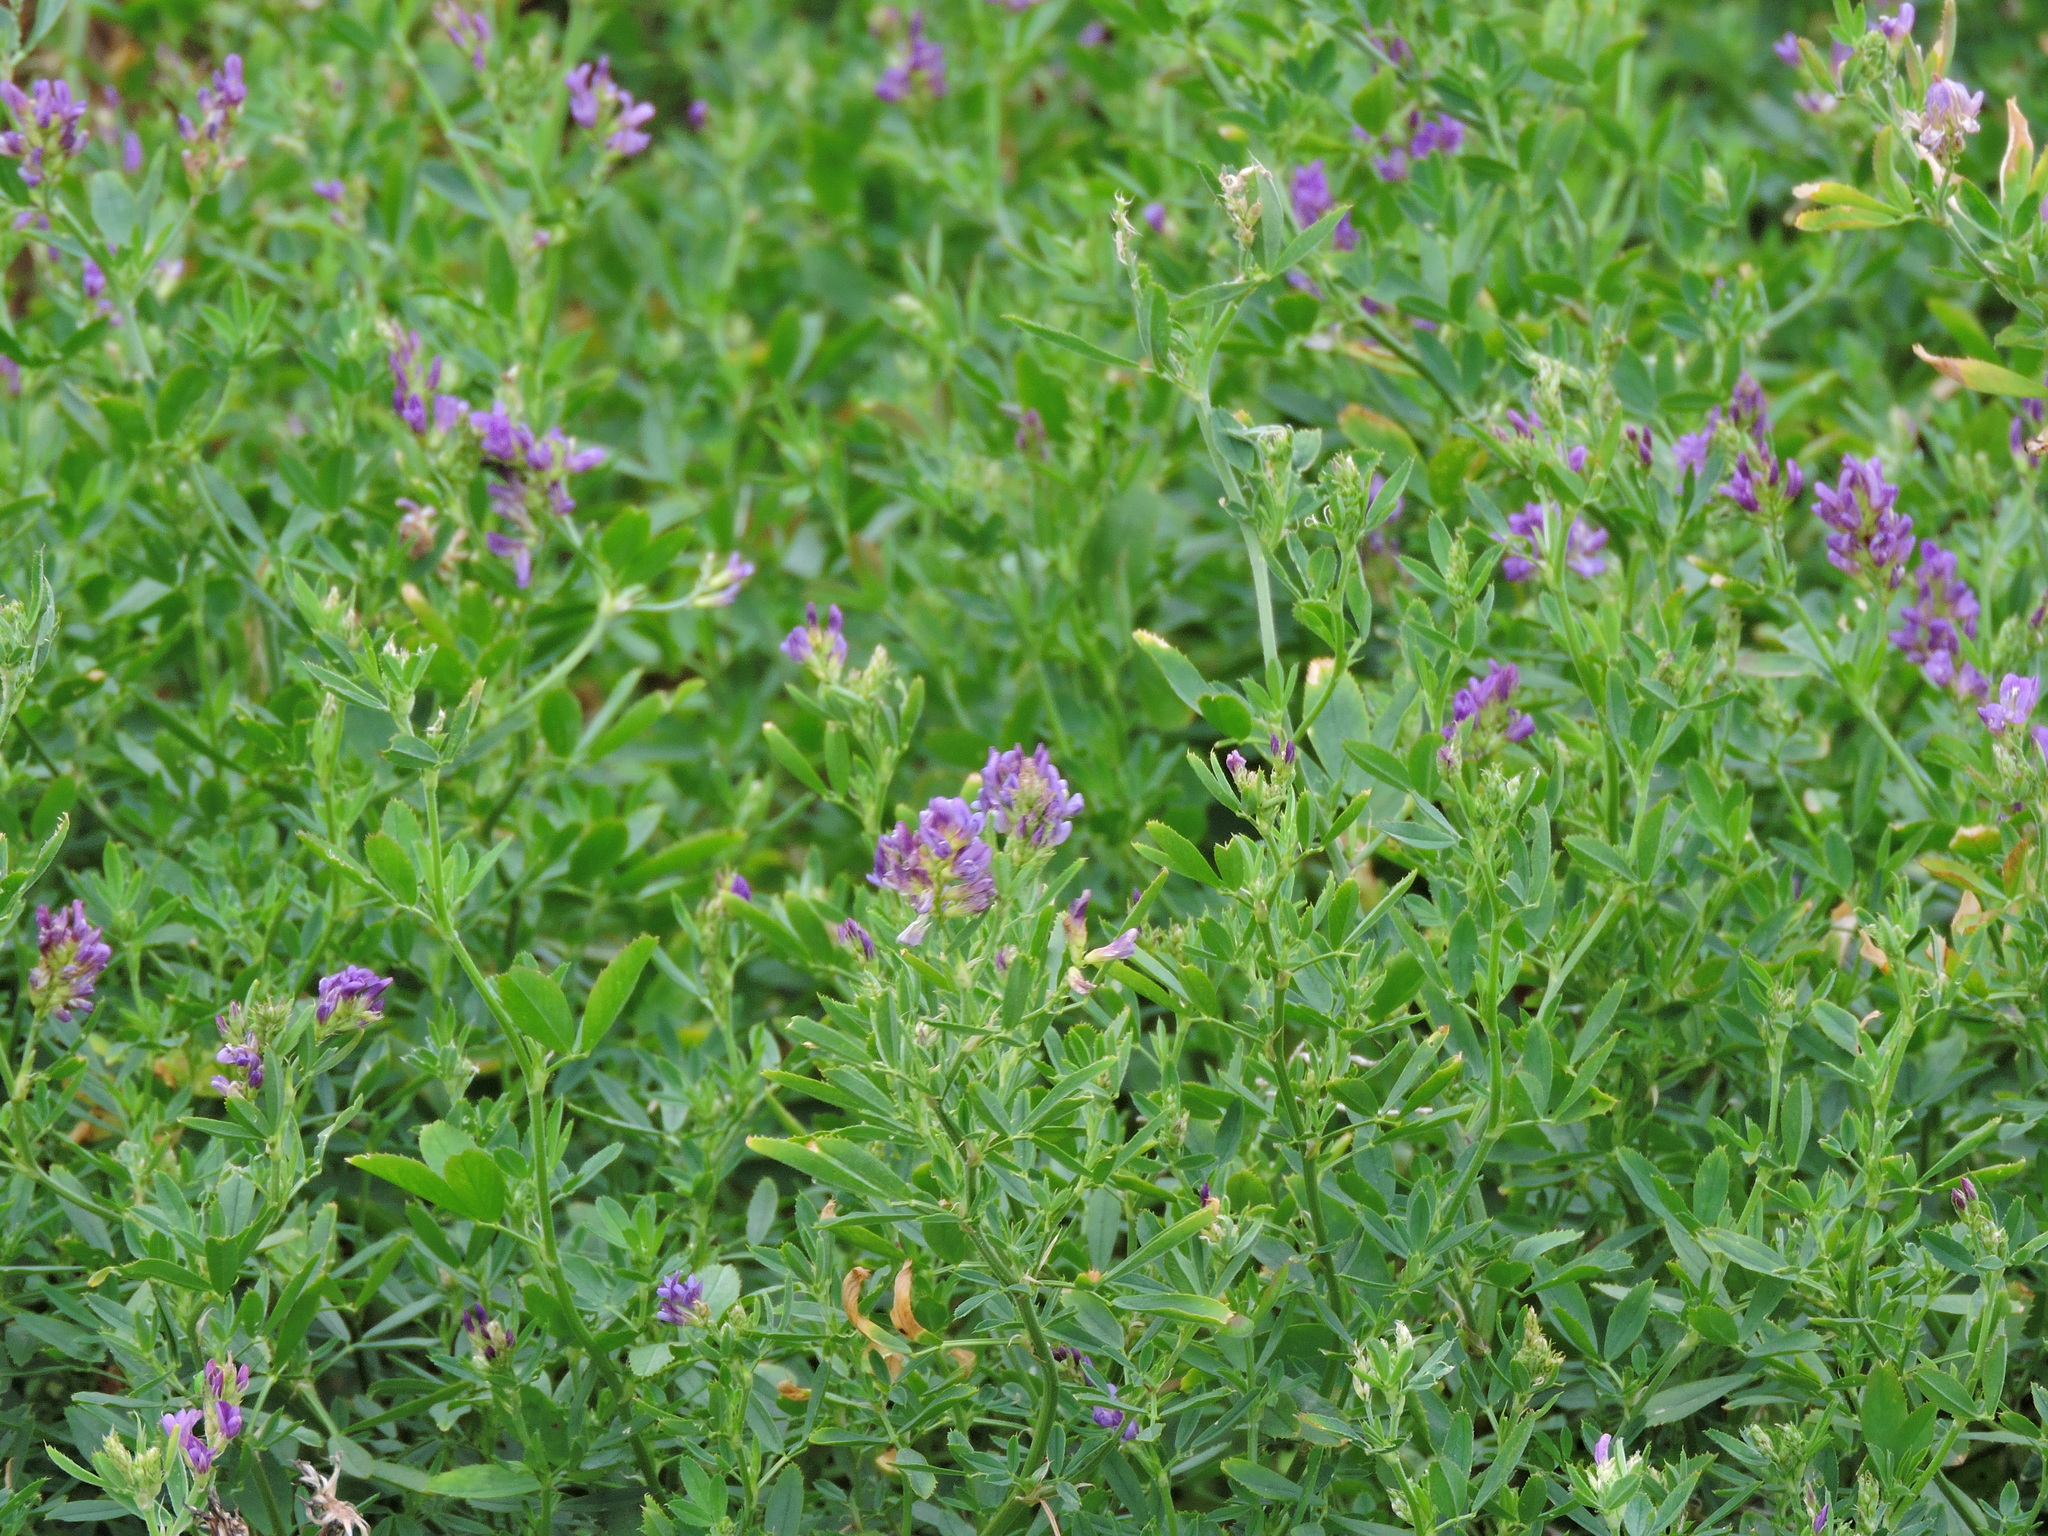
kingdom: Plantae
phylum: Tracheophyta
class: Magnoliopsida
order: Fabales
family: Fabaceae
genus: Medicago
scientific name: Medicago sativa
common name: Alfalfa
